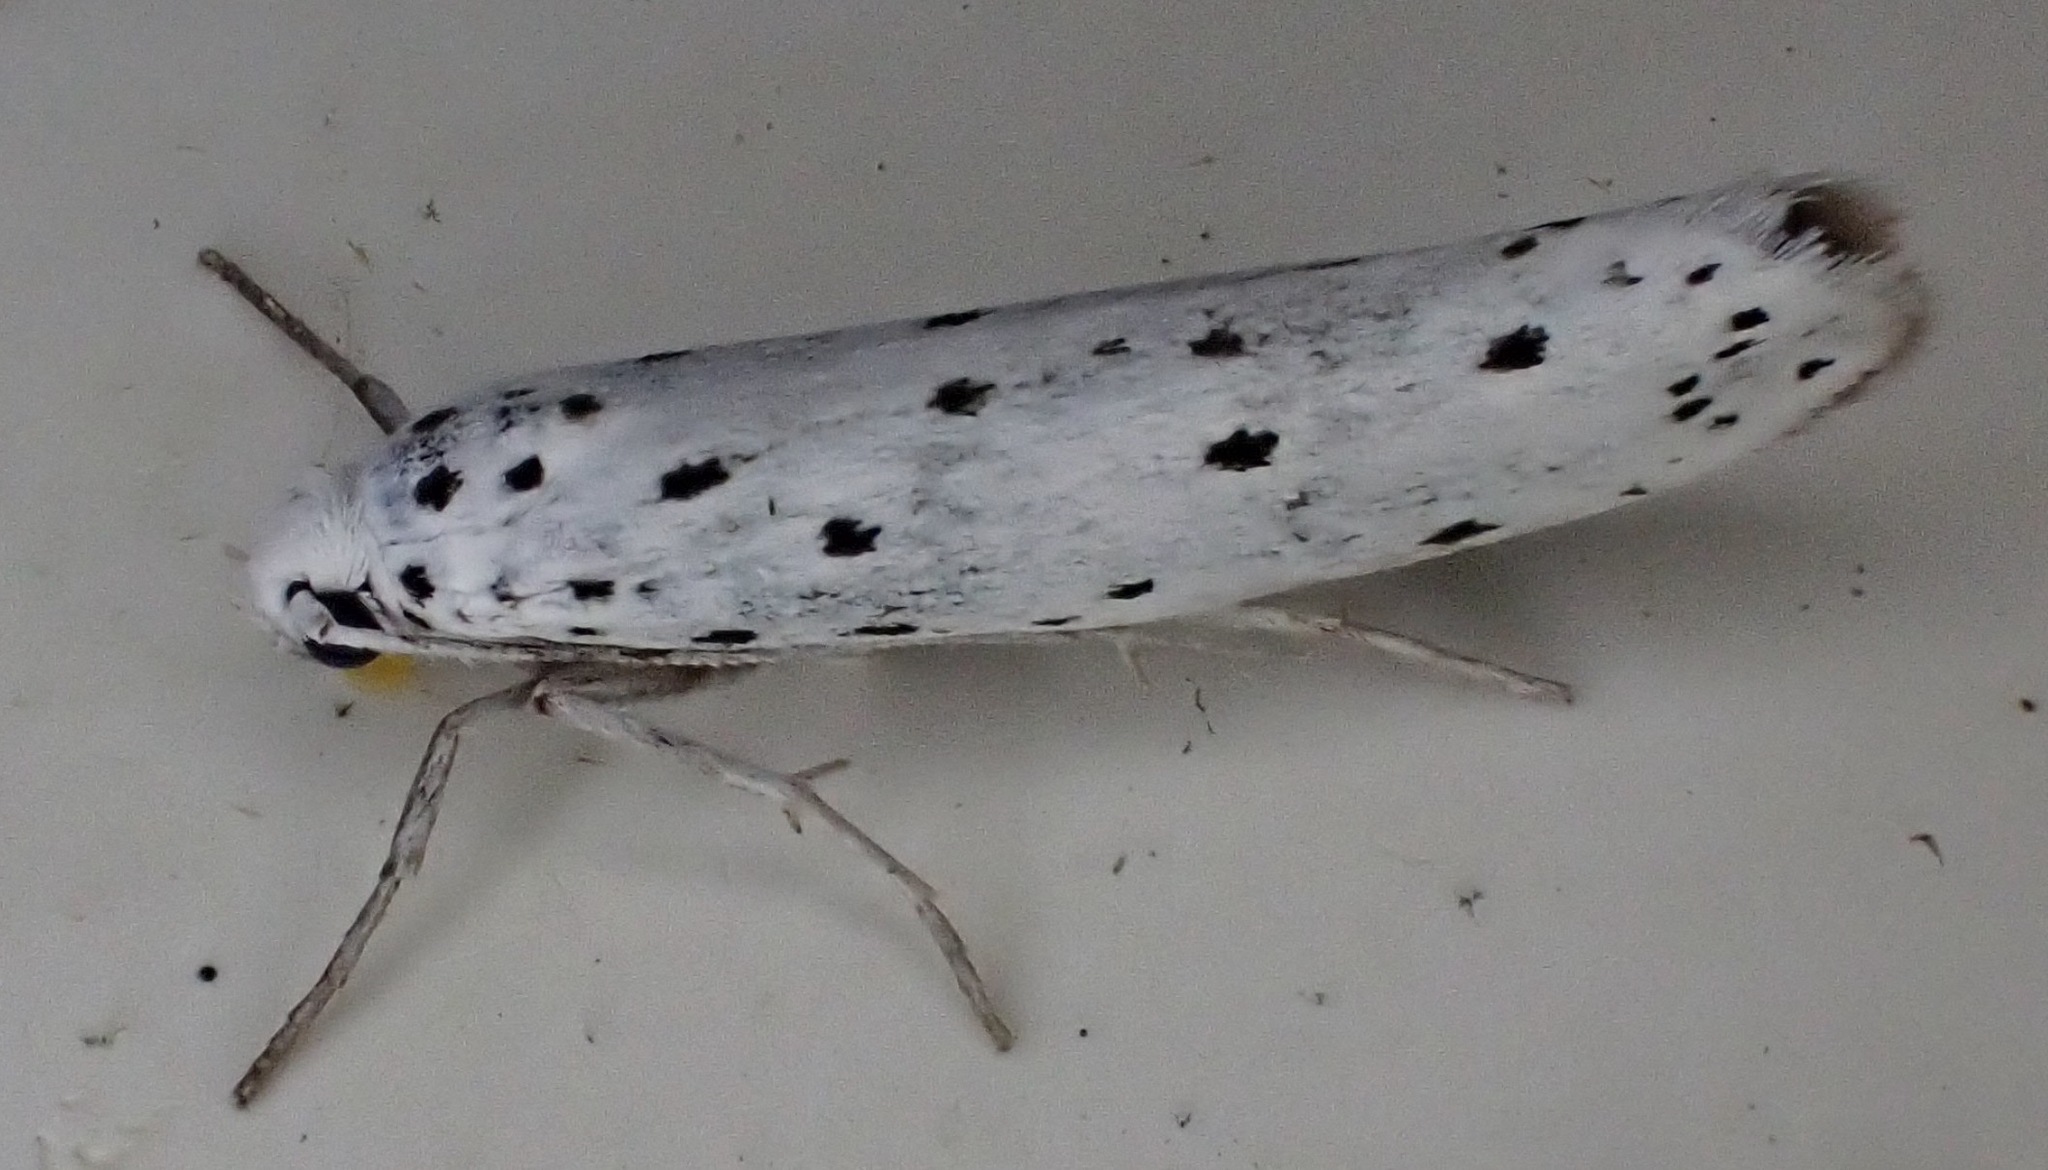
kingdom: Animalia
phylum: Arthropoda
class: Insecta
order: Lepidoptera
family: Yponomeutidae
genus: Yponomeuta
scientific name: Yponomeuta
